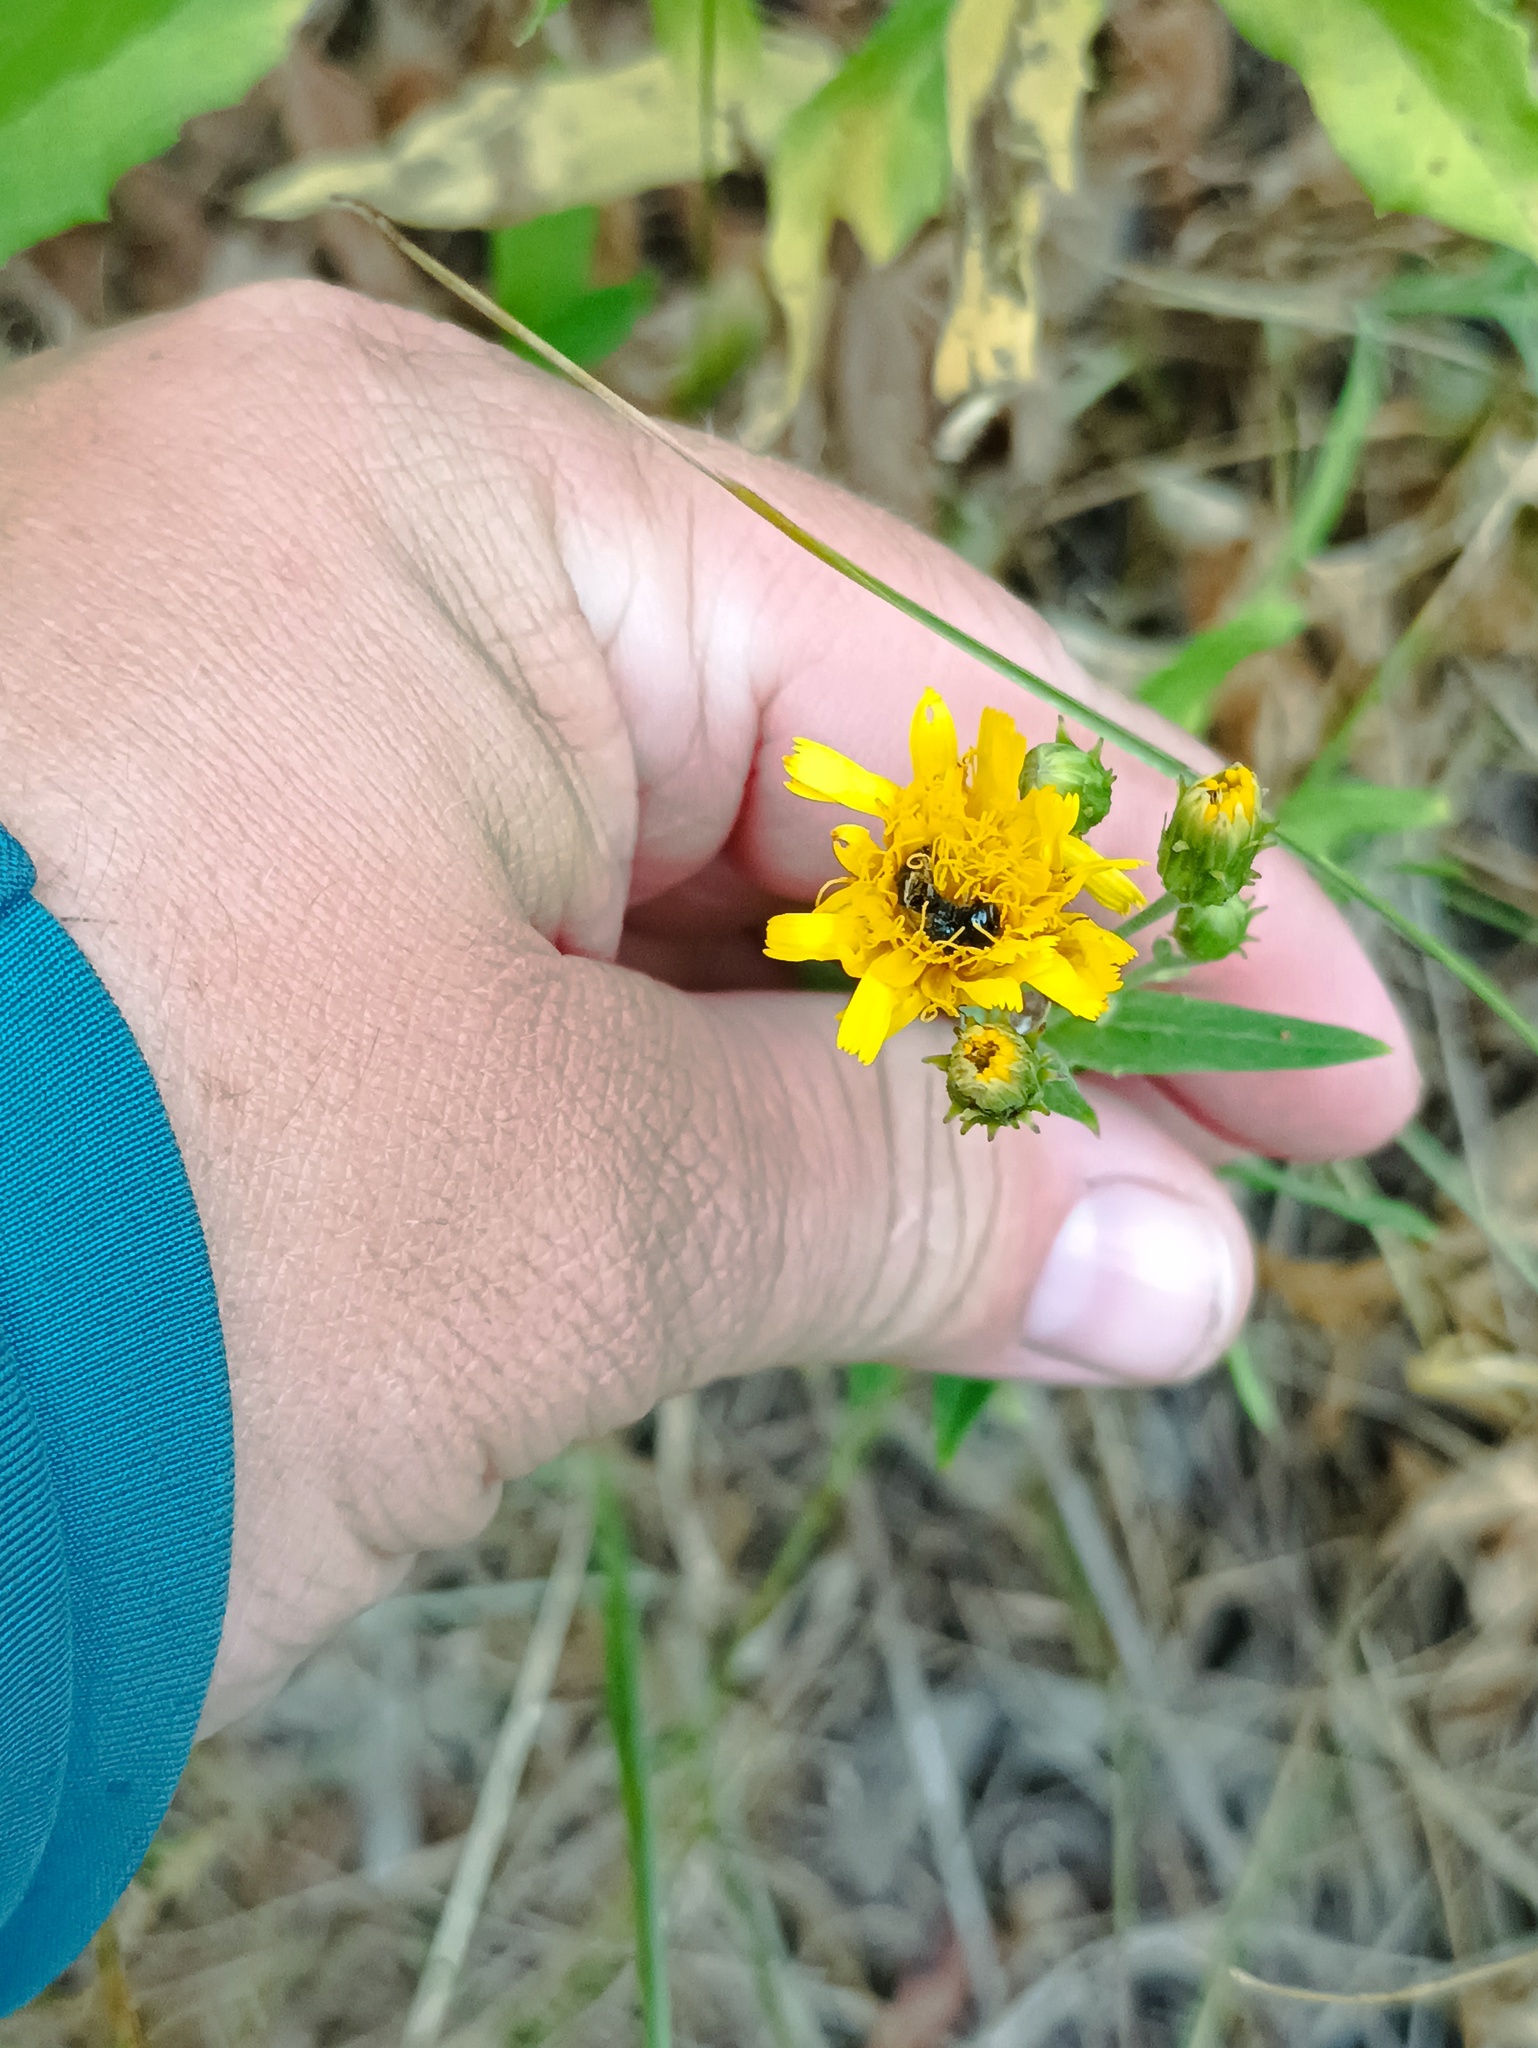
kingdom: Plantae
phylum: Tracheophyta
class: Magnoliopsida
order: Asterales
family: Asteraceae
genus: Hieracium
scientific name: Hieracium umbellatum
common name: Northern hawkweed
